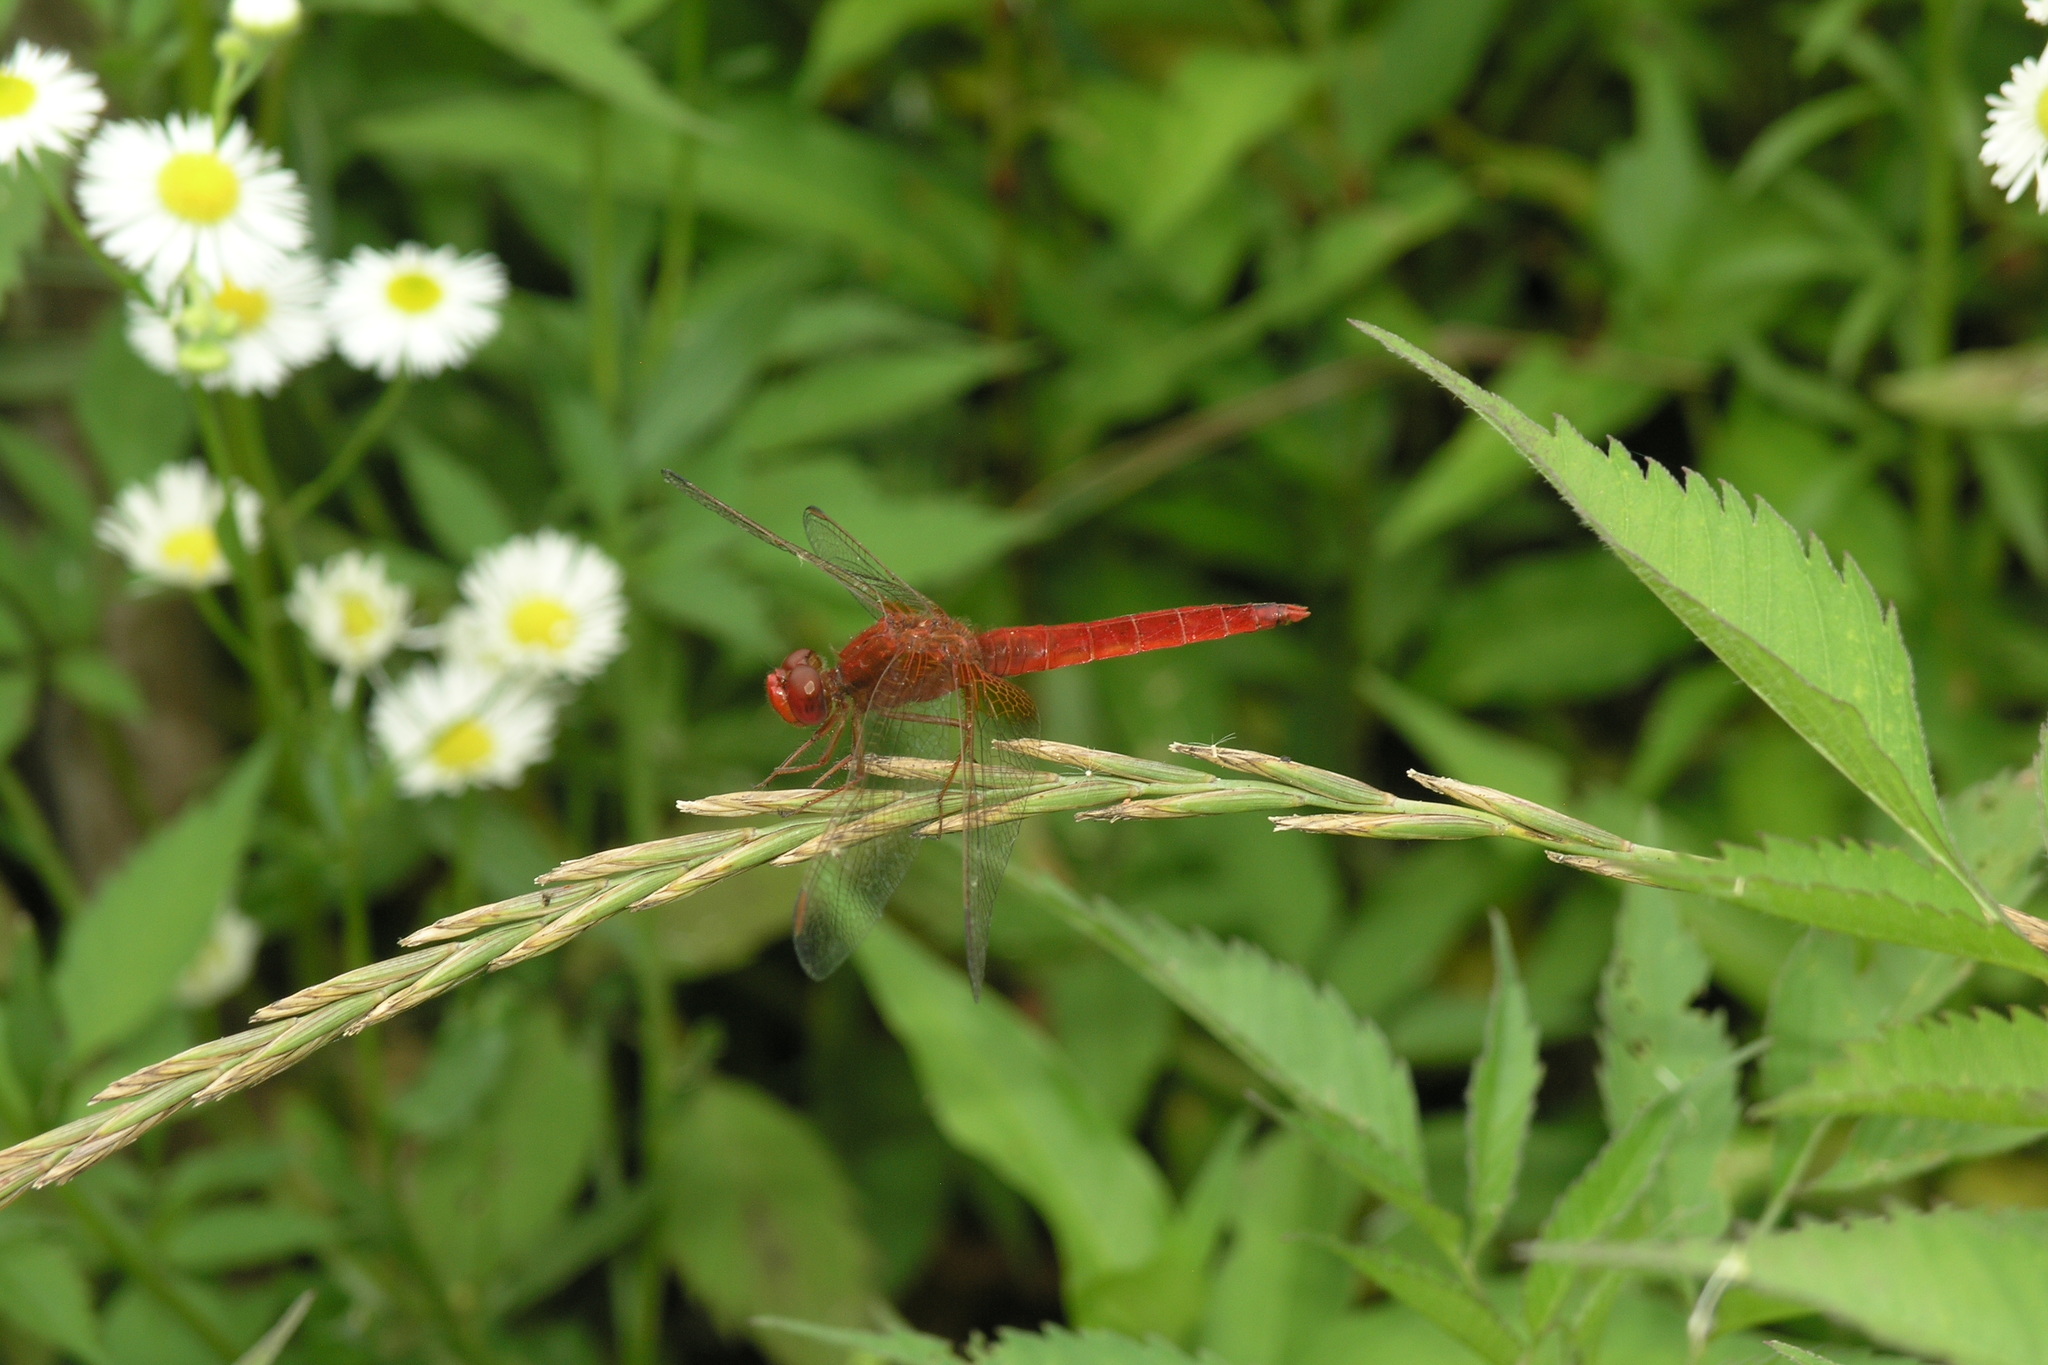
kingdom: Animalia
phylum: Arthropoda
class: Insecta
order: Odonata
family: Libellulidae
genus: Crocothemis
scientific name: Crocothemis erythraea
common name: Scarlet dragonfly
